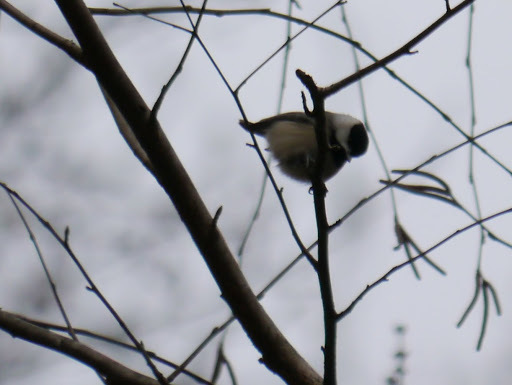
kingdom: Animalia
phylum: Chordata
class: Aves
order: Passeriformes
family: Paridae
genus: Poecile
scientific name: Poecile carolinensis
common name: Carolina chickadee
